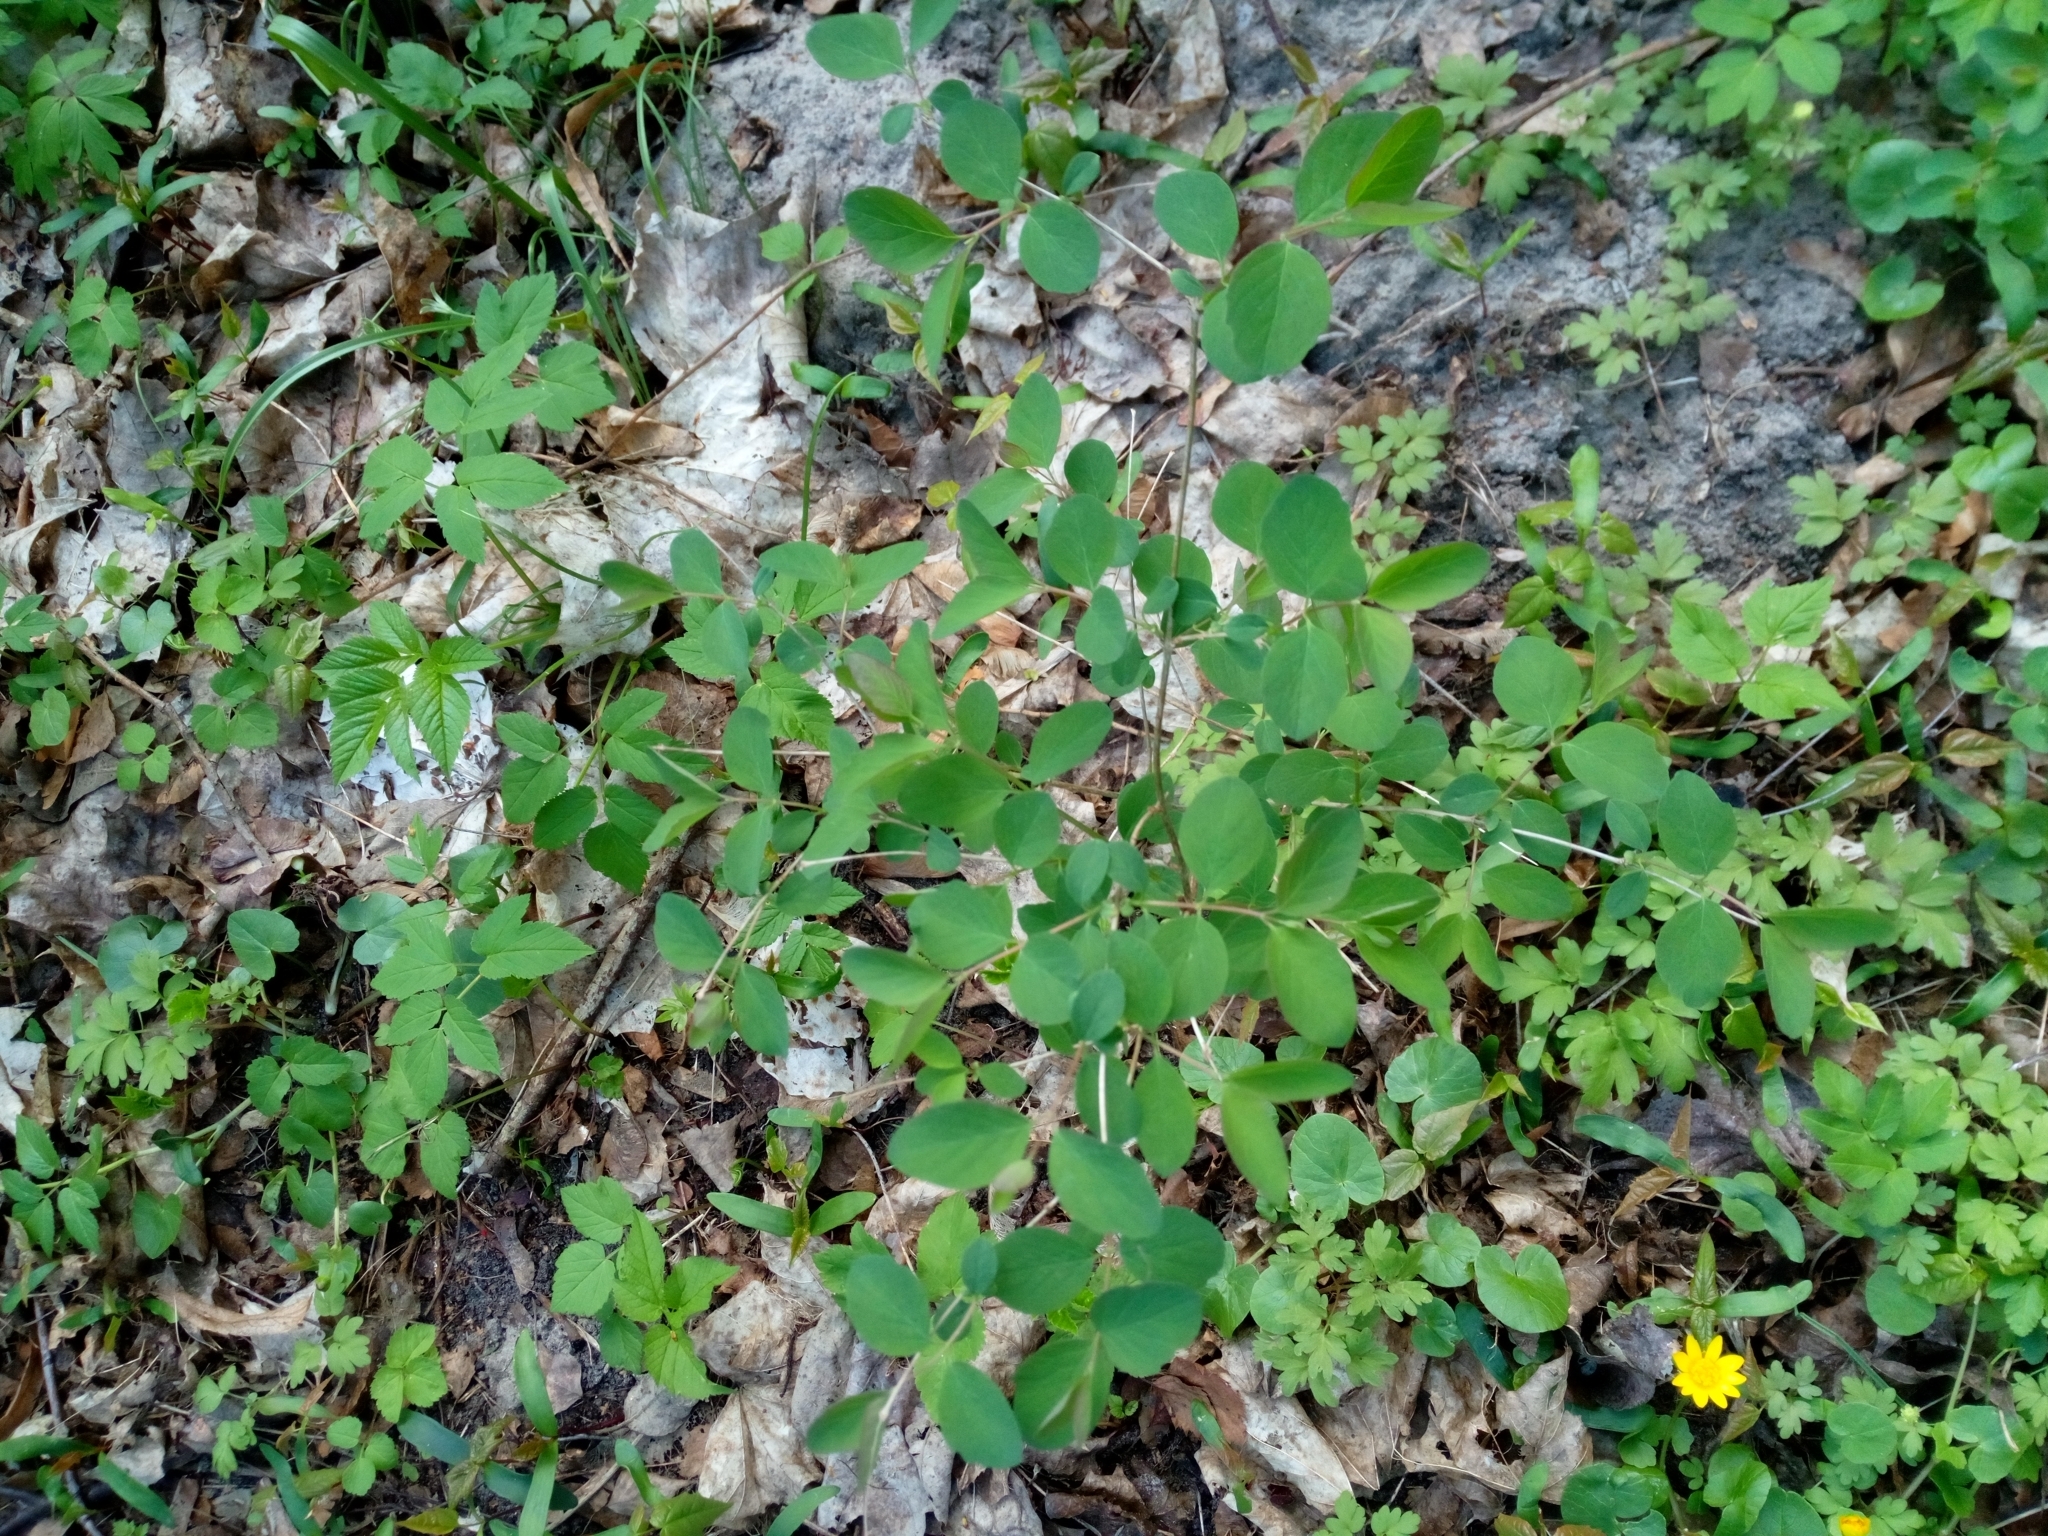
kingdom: Plantae
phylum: Tracheophyta
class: Magnoliopsida
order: Dipsacales
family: Caprifoliaceae
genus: Symphoricarpos
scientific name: Symphoricarpos albus
